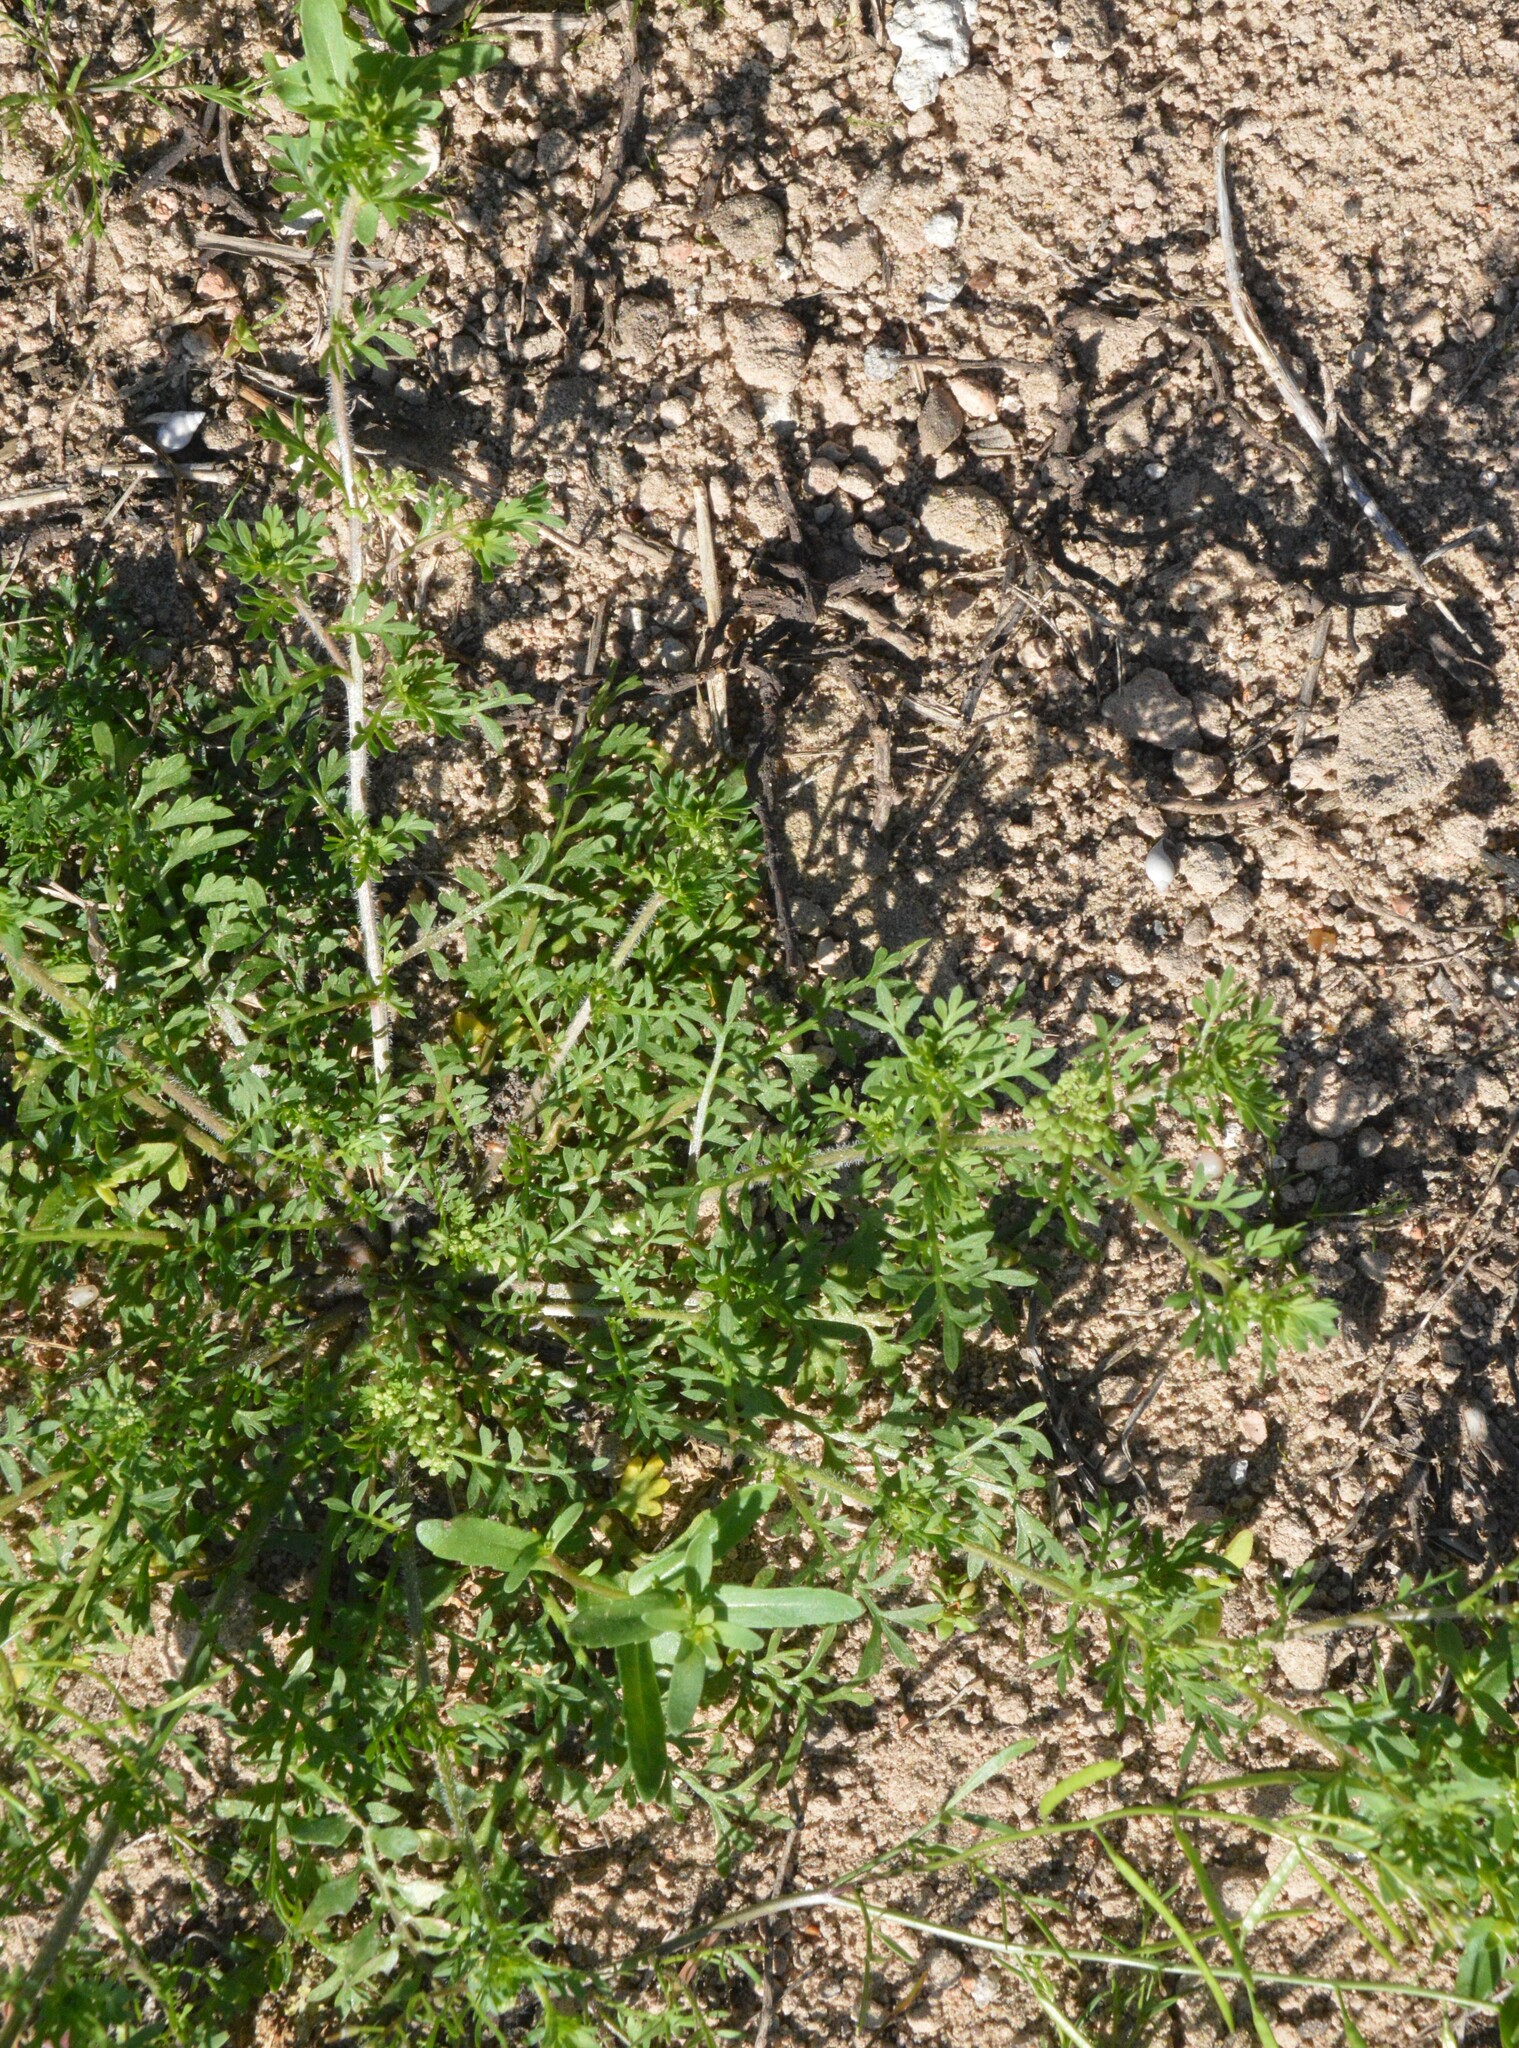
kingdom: Plantae
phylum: Tracheophyta
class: Magnoliopsida
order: Brassicales
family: Brassicaceae
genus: Lepidium
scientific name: Lepidium didymum
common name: Lesser swinecress
